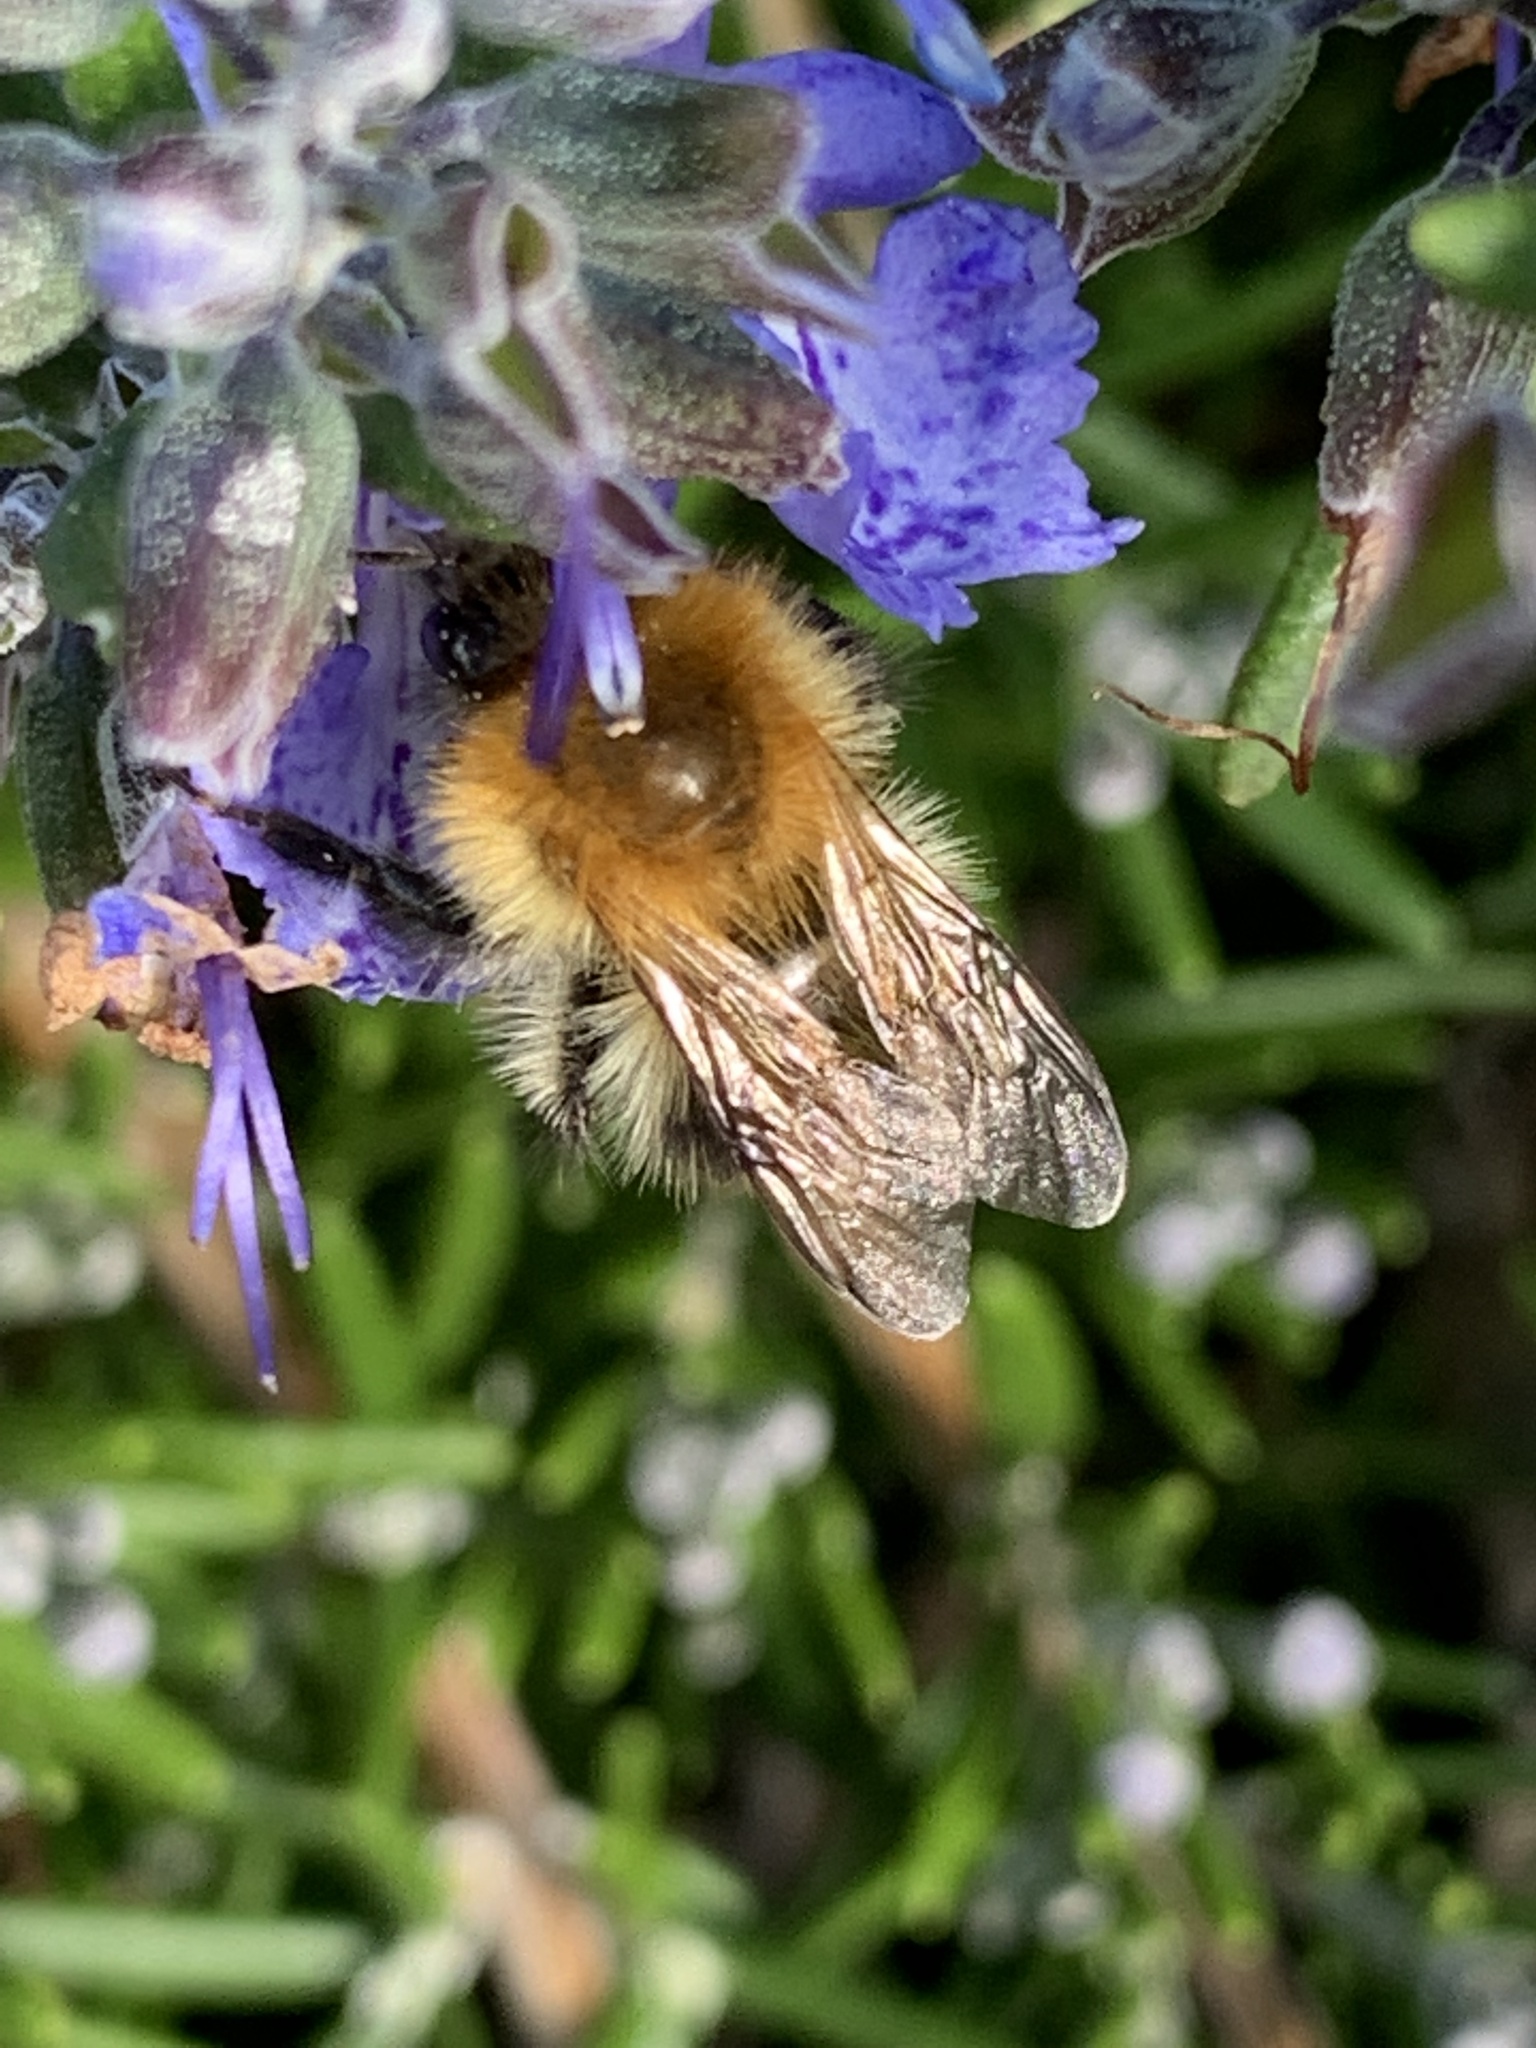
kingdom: Animalia
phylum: Arthropoda
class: Insecta
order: Hymenoptera
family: Apidae
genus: Bombus
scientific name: Bombus pascuorum
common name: Common carder bee
